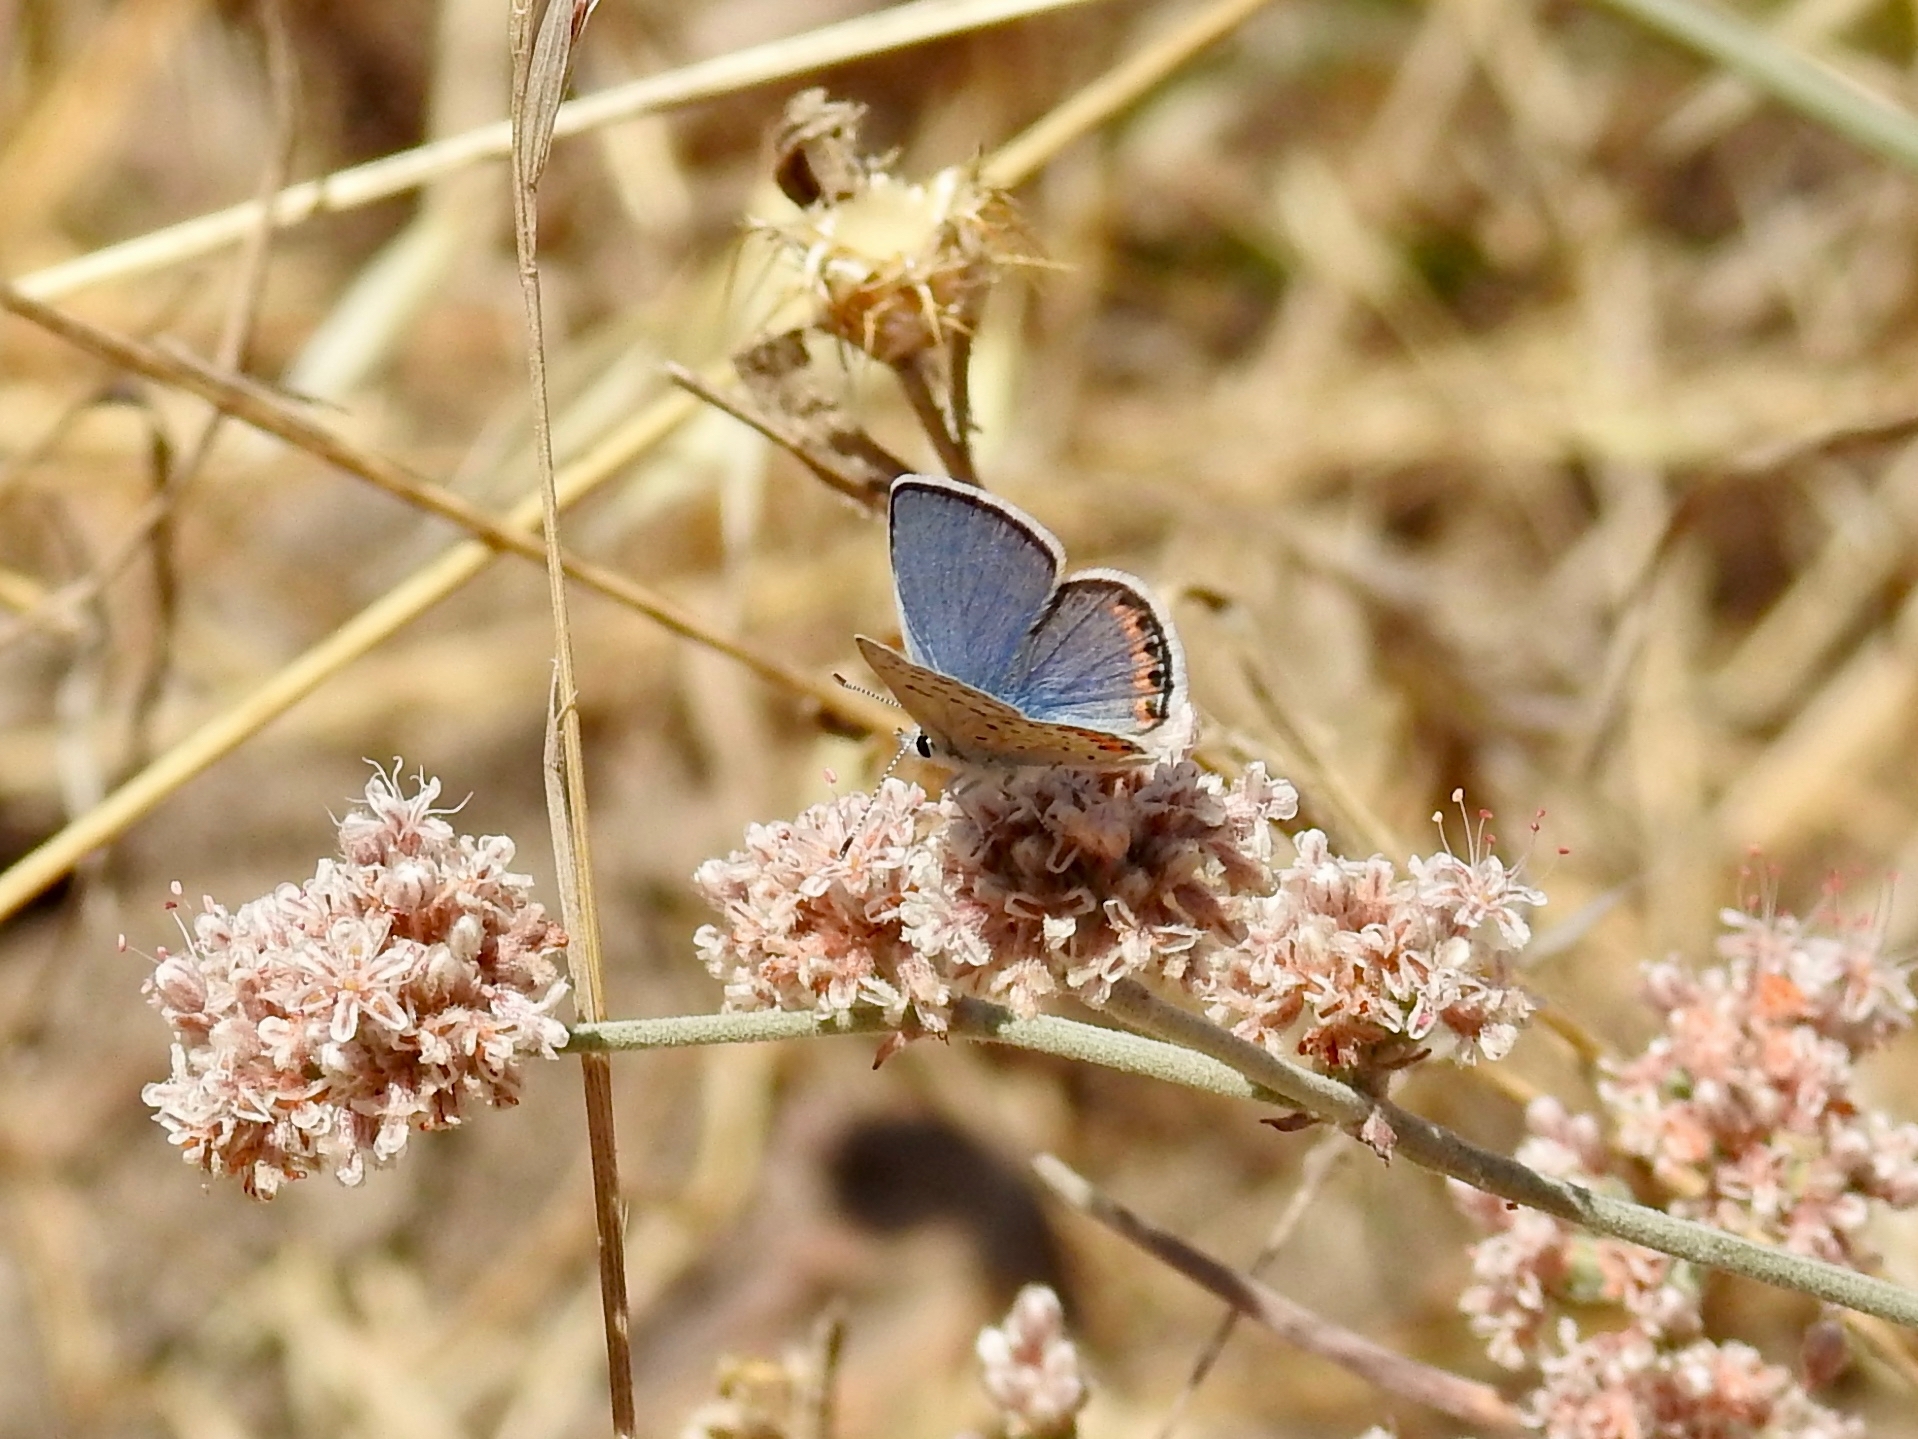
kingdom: Animalia
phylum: Arthropoda
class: Insecta
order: Lepidoptera
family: Lycaenidae
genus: Icaricia
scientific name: Icaricia acmon
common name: Acmon blue
